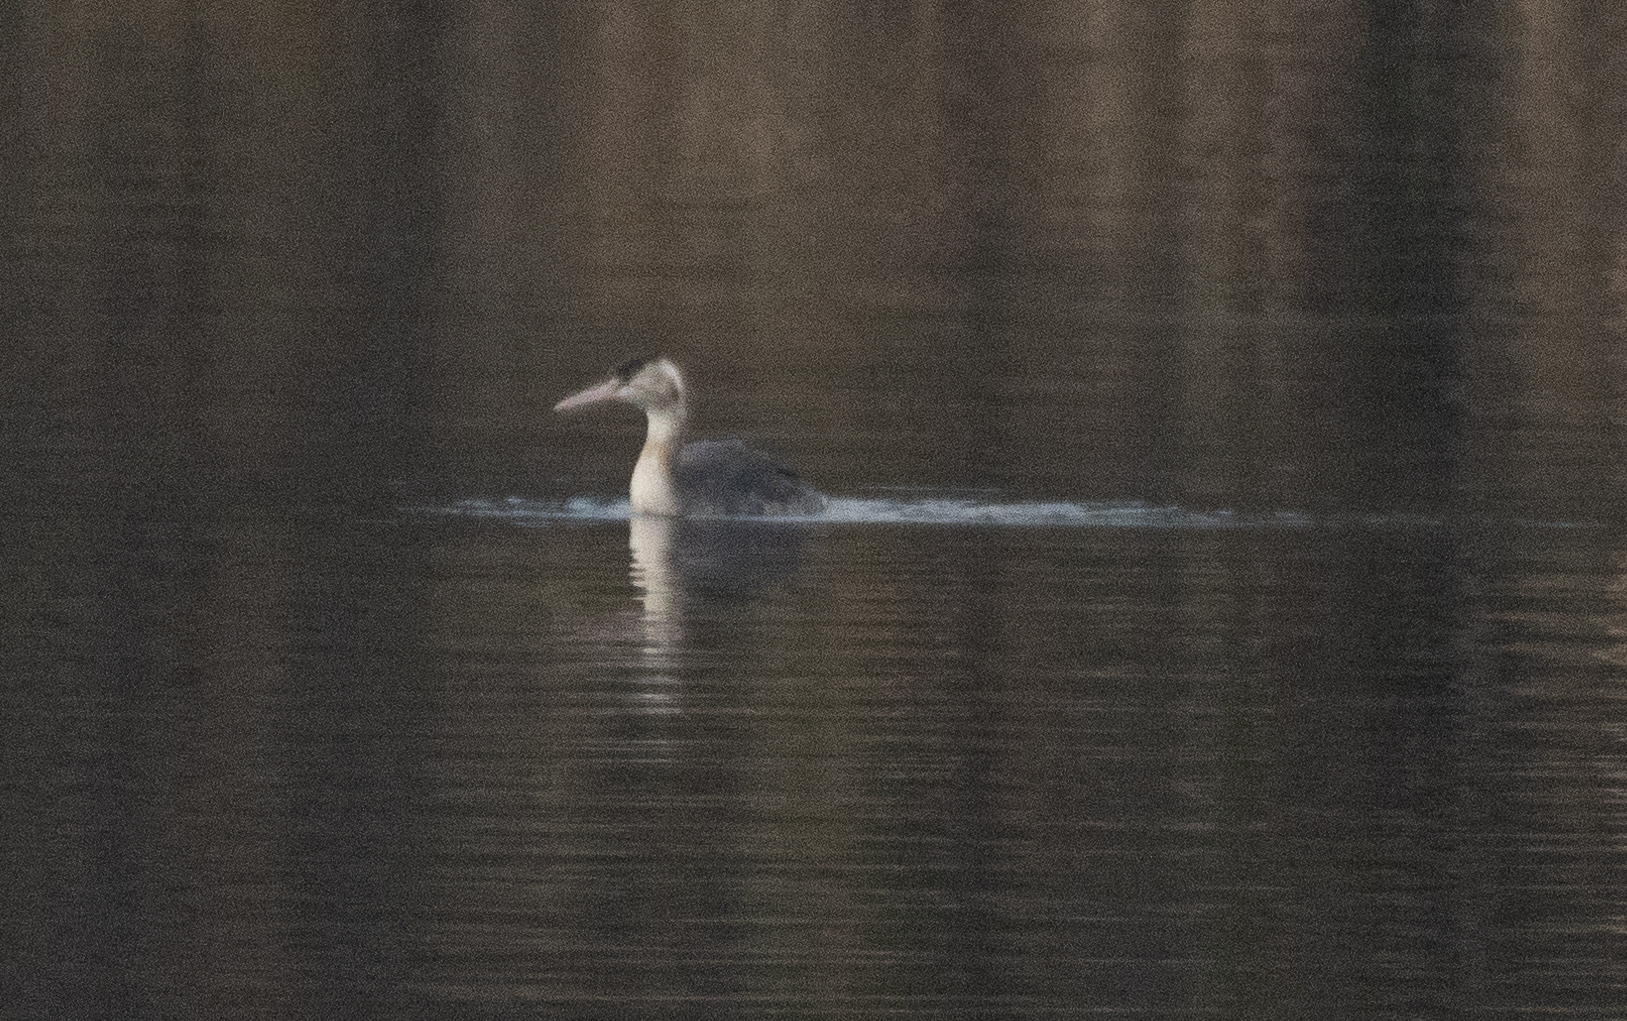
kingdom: Animalia
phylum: Chordata
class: Aves
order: Podicipediformes
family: Podicipedidae
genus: Podiceps
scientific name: Podiceps cristatus
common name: Great crested grebe
